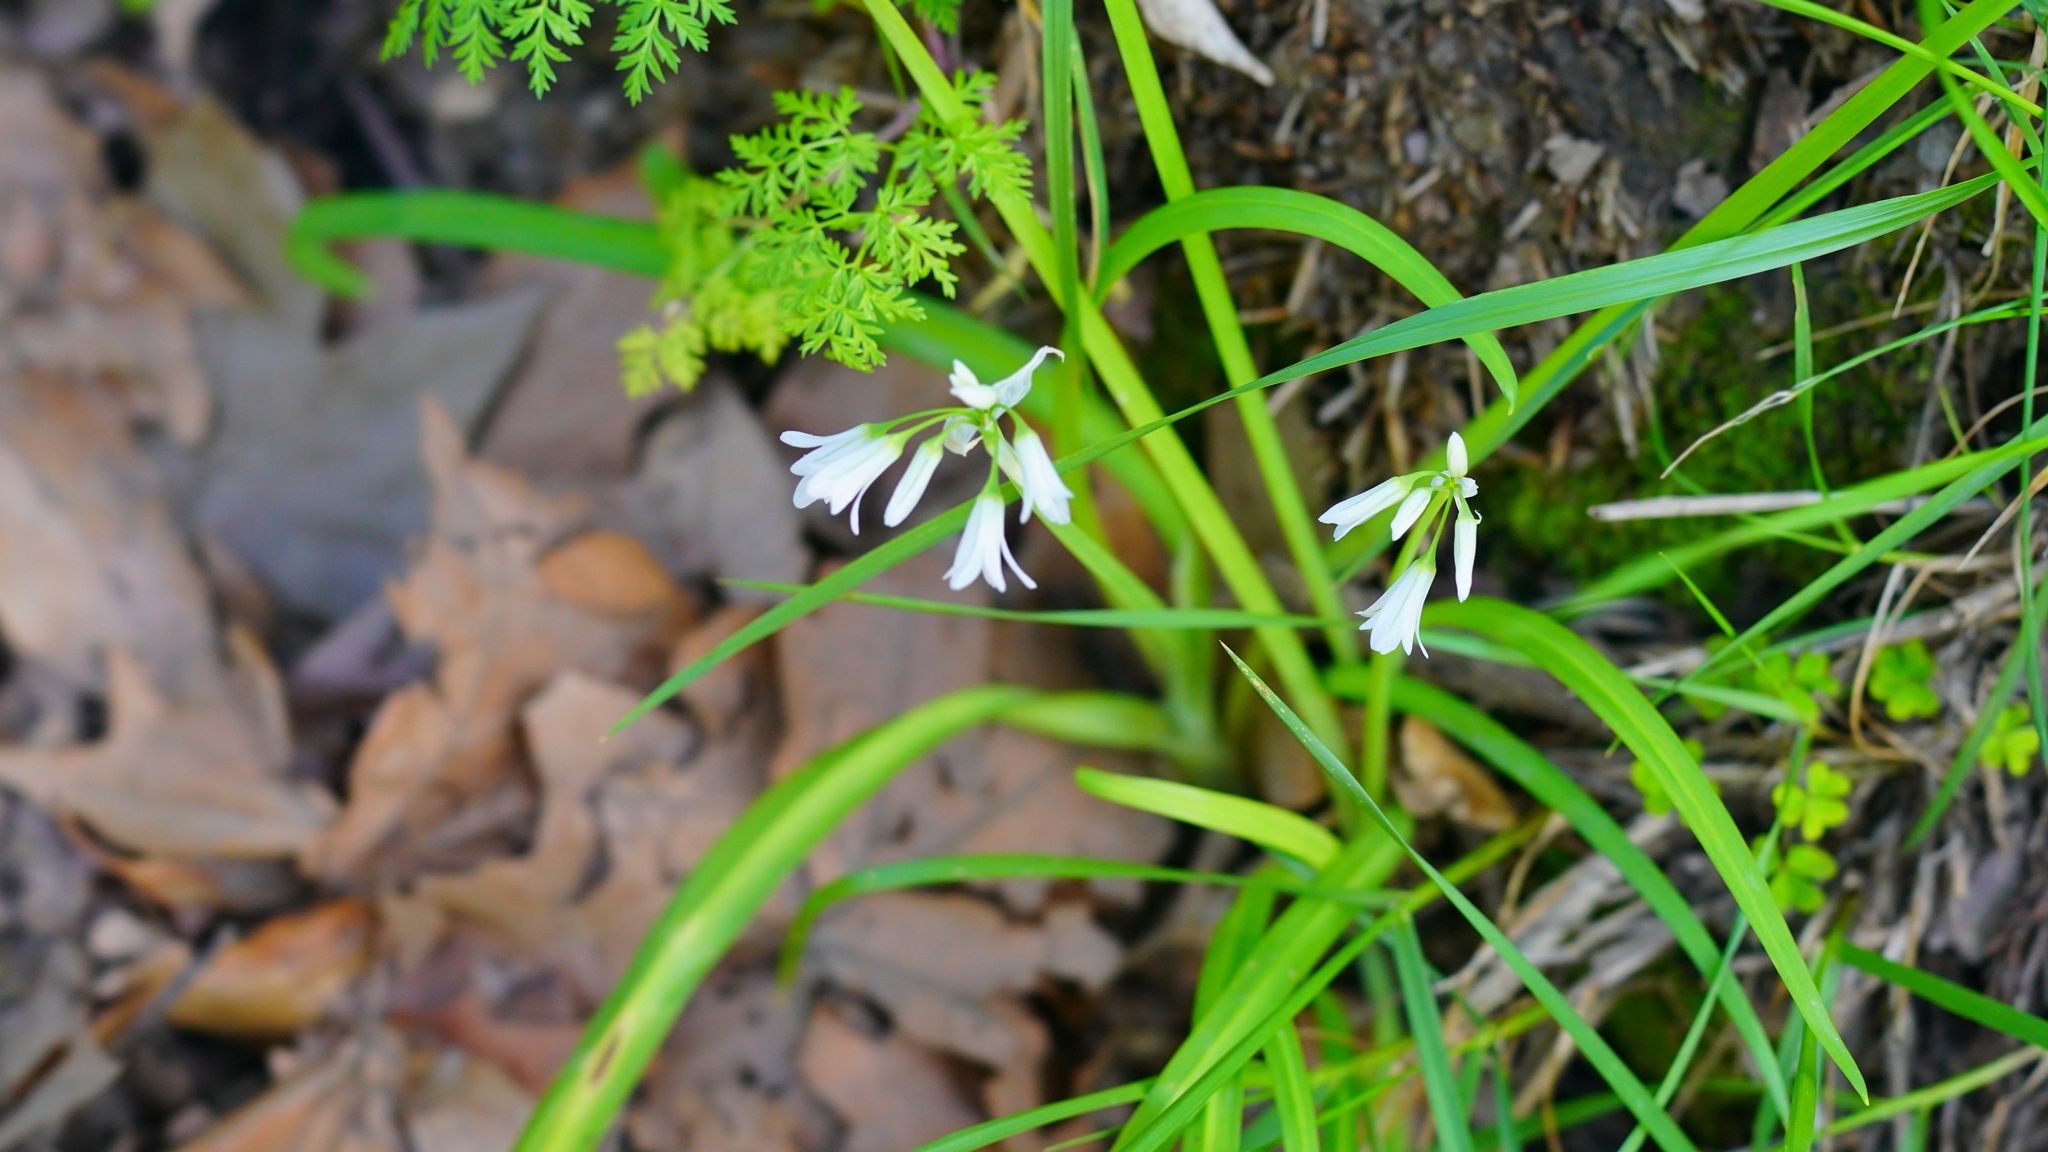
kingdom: Plantae
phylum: Tracheophyta
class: Liliopsida
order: Asparagales
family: Amaryllidaceae
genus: Allium
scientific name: Allium triquetrum
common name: Three-cornered garlic
